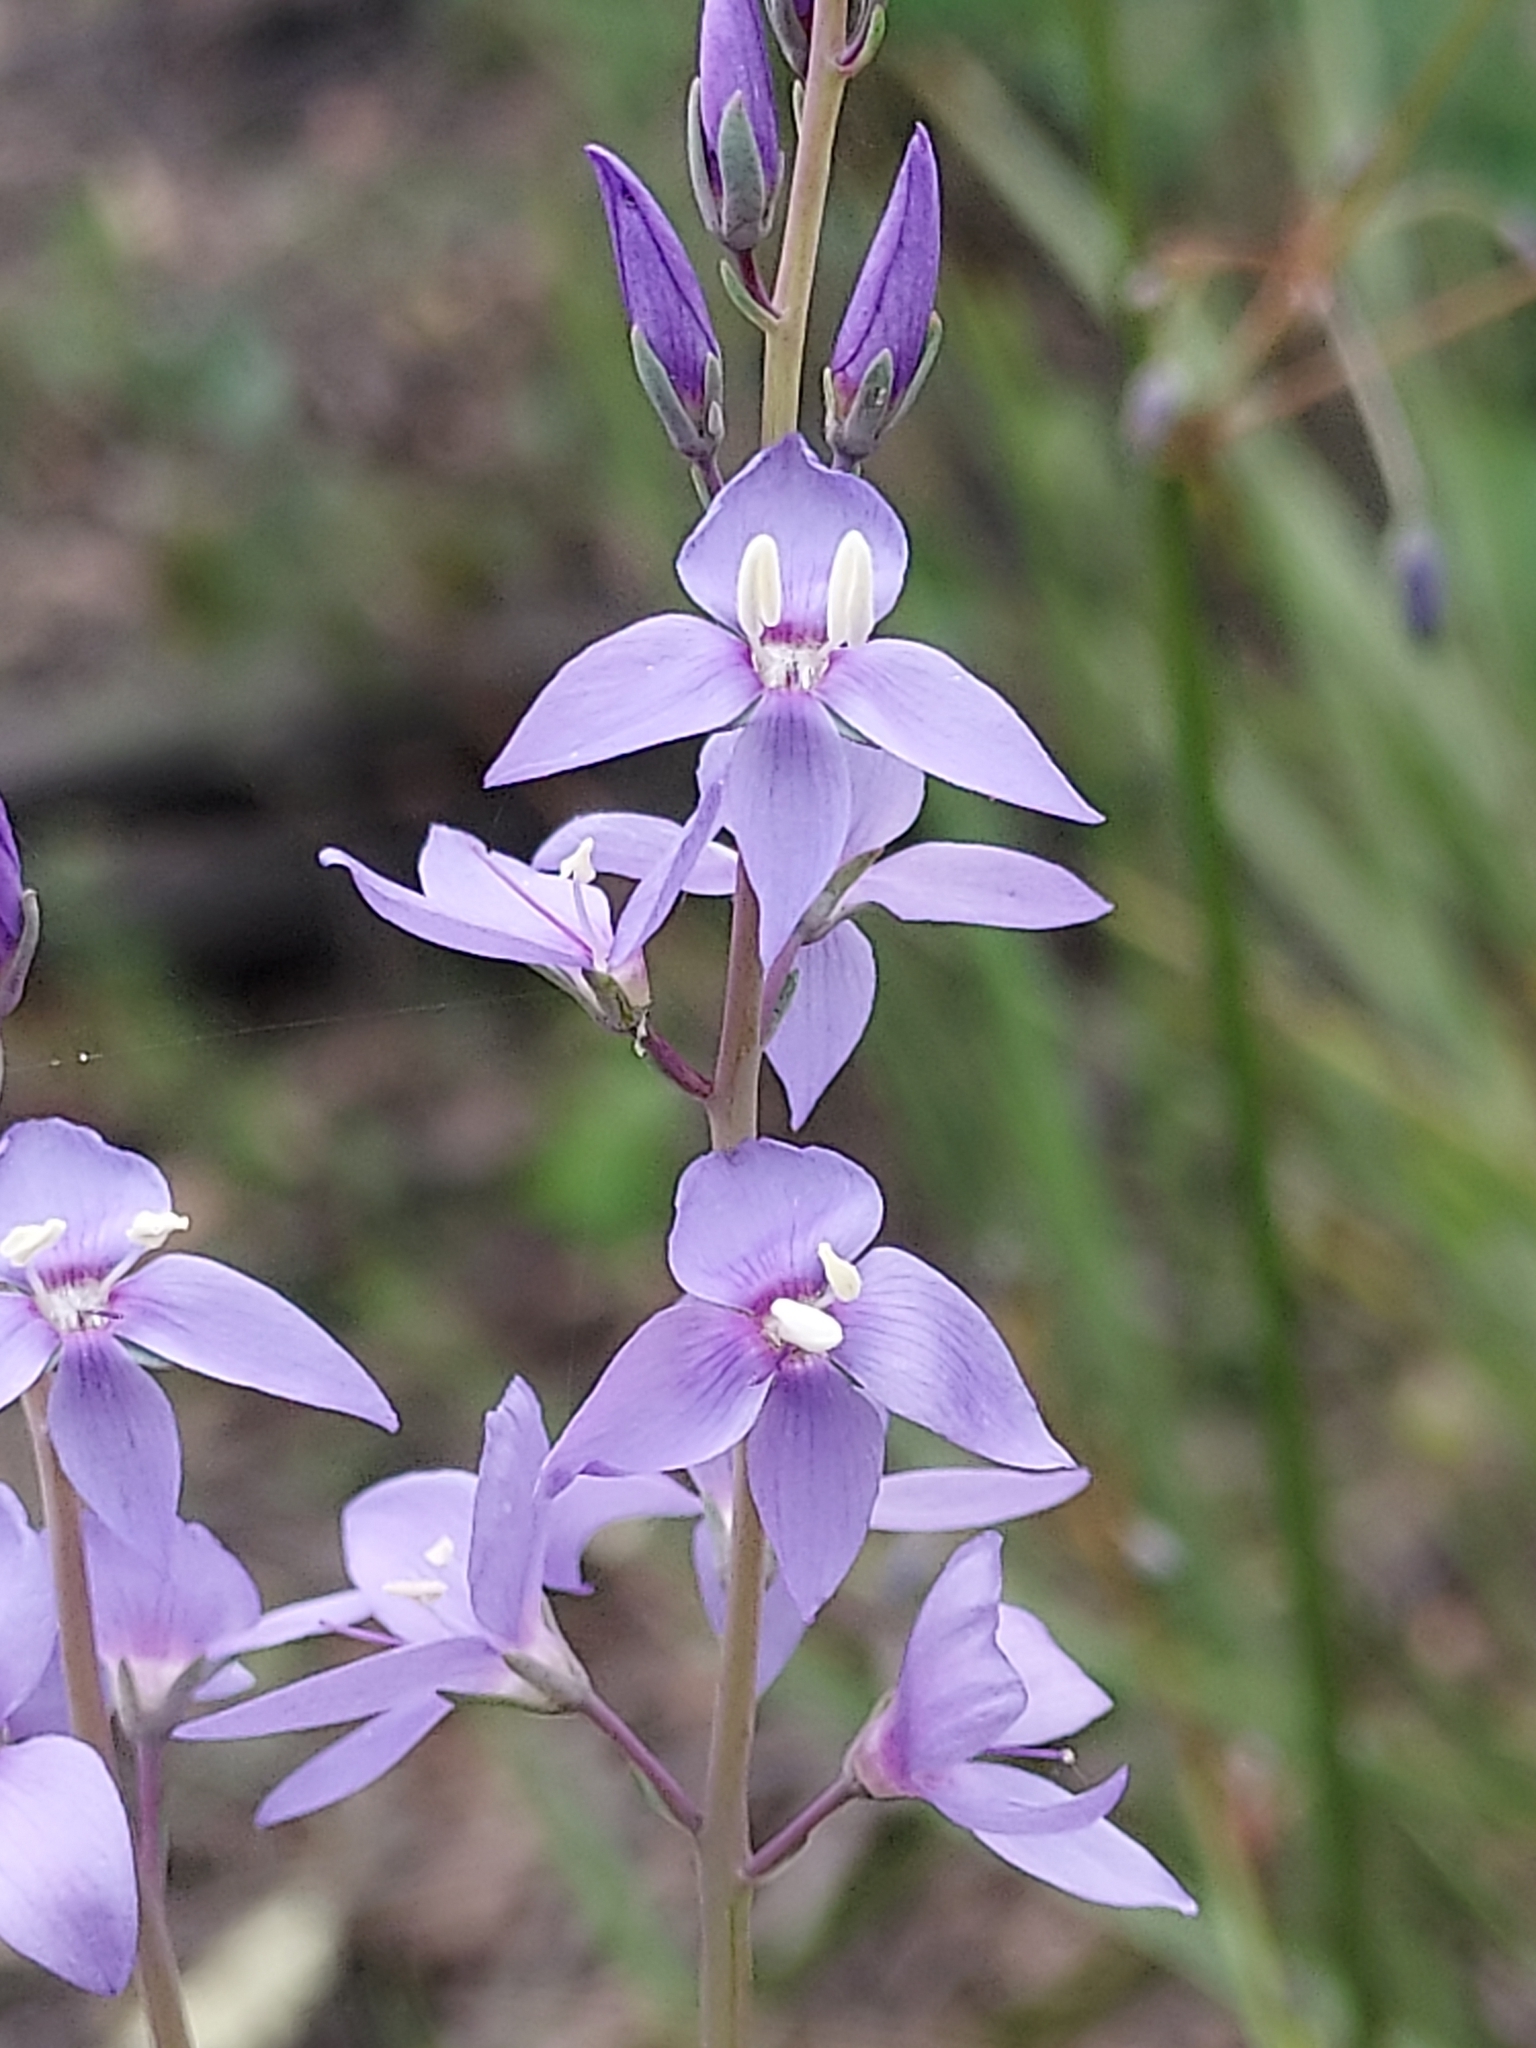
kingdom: Plantae
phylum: Tracheophyta
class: Magnoliopsida
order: Lamiales
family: Plantaginaceae
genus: Veronica
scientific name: Veronica perfoliata
